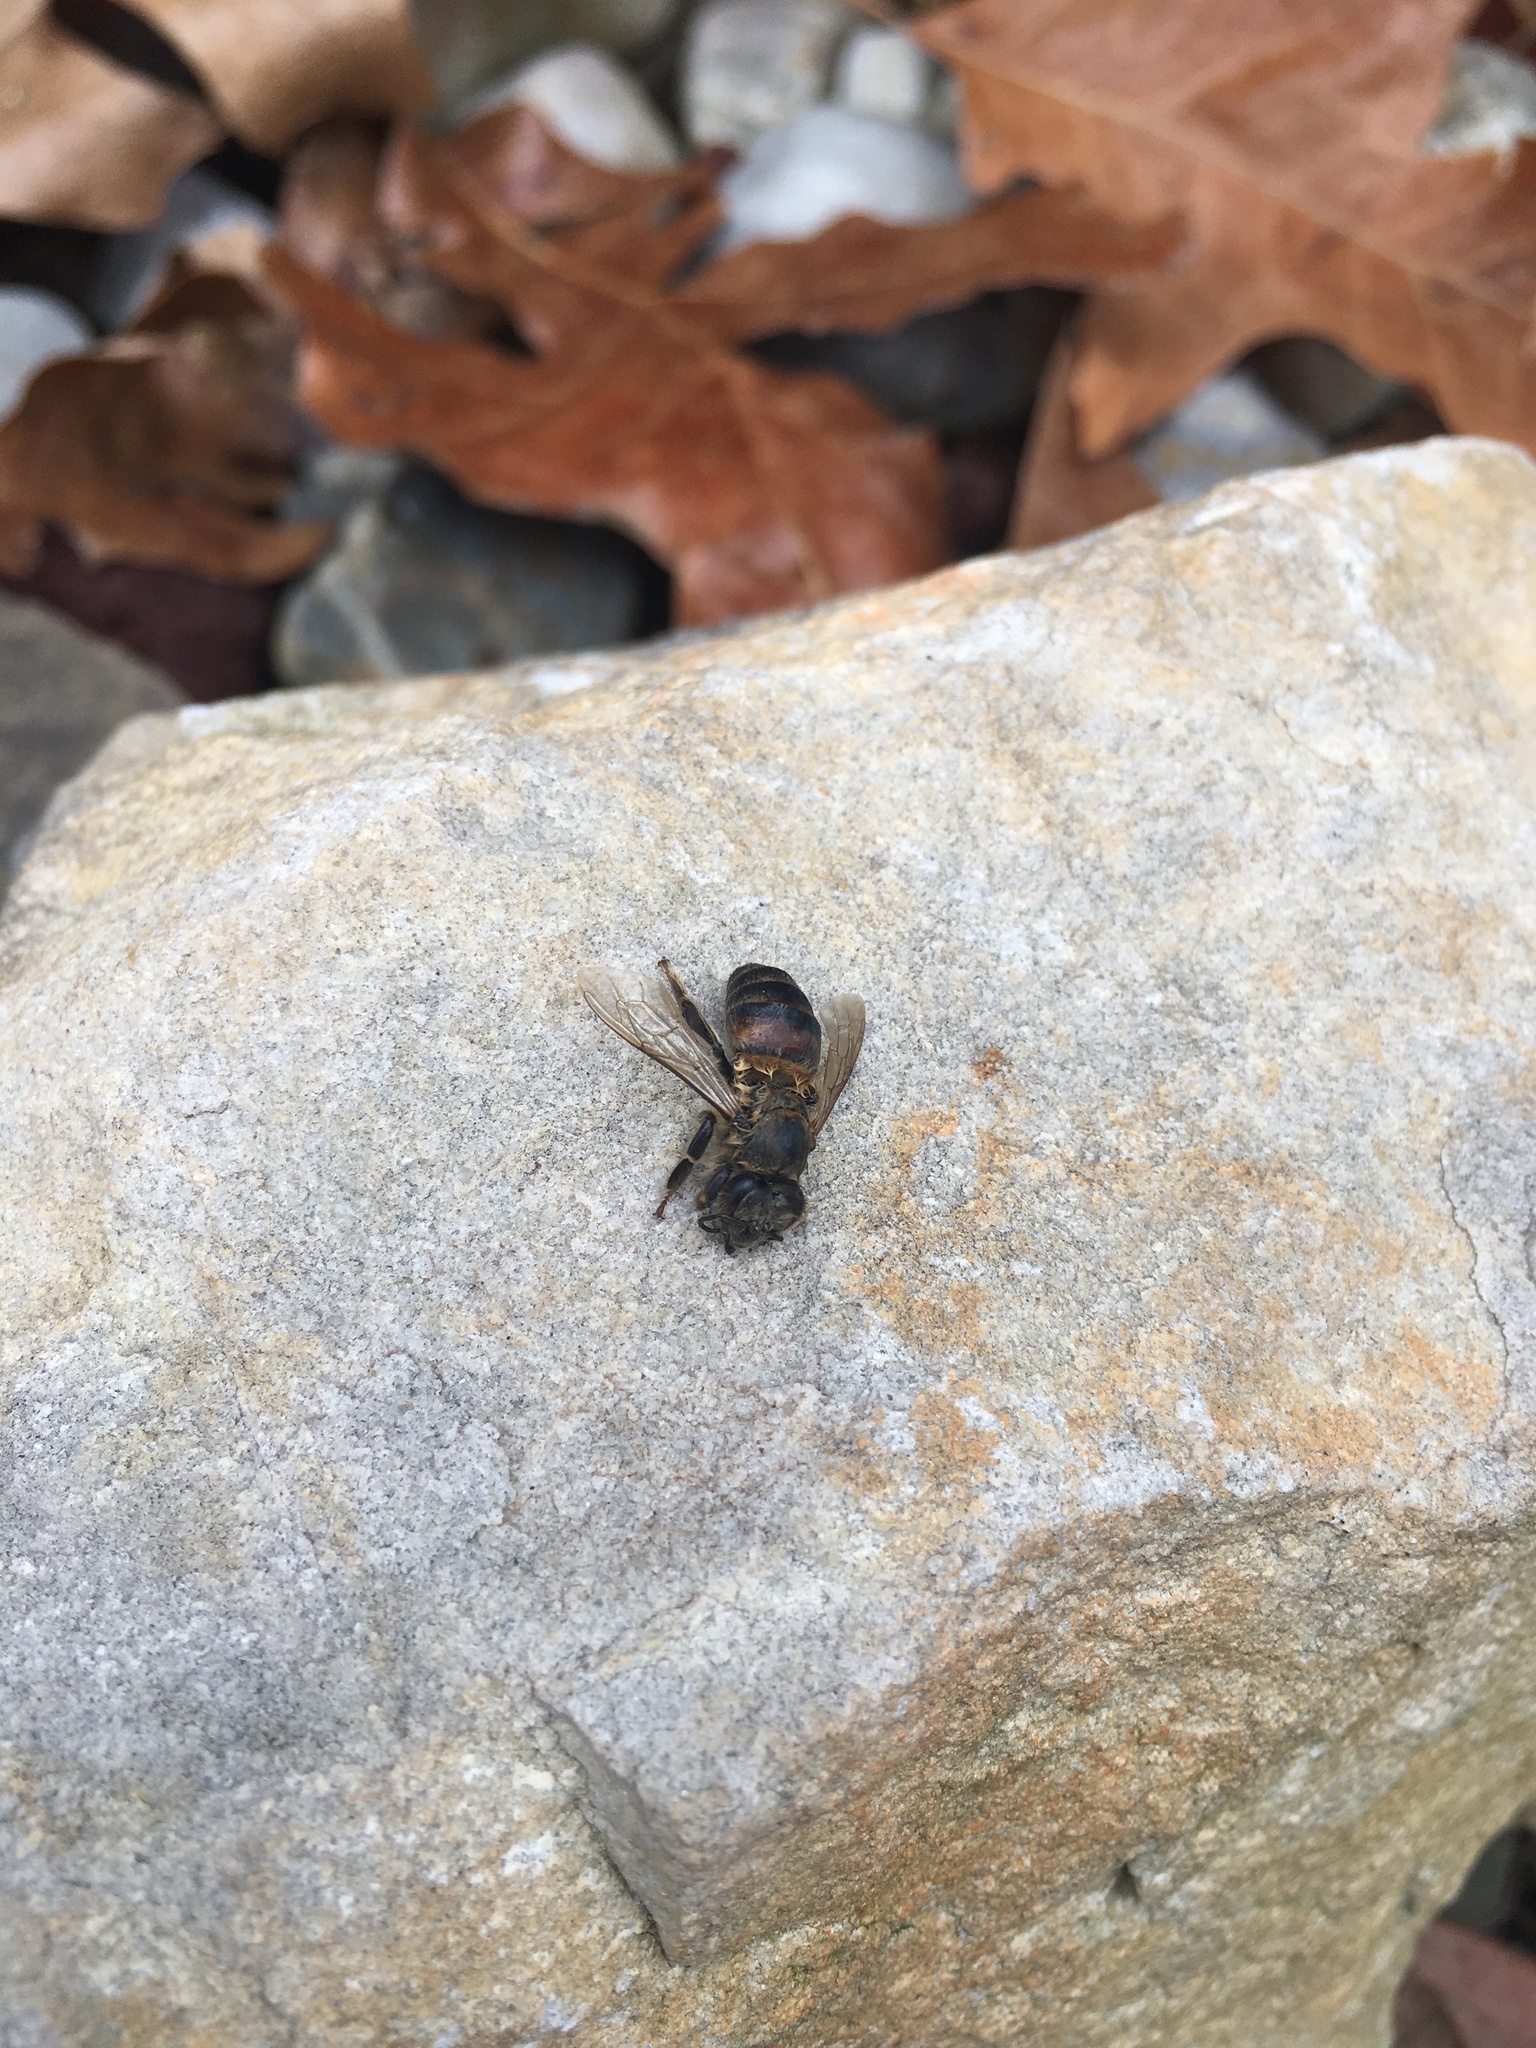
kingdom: Animalia
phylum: Arthropoda
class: Insecta
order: Hymenoptera
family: Apidae
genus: Apis
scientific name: Apis mellifera
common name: Honey bee
